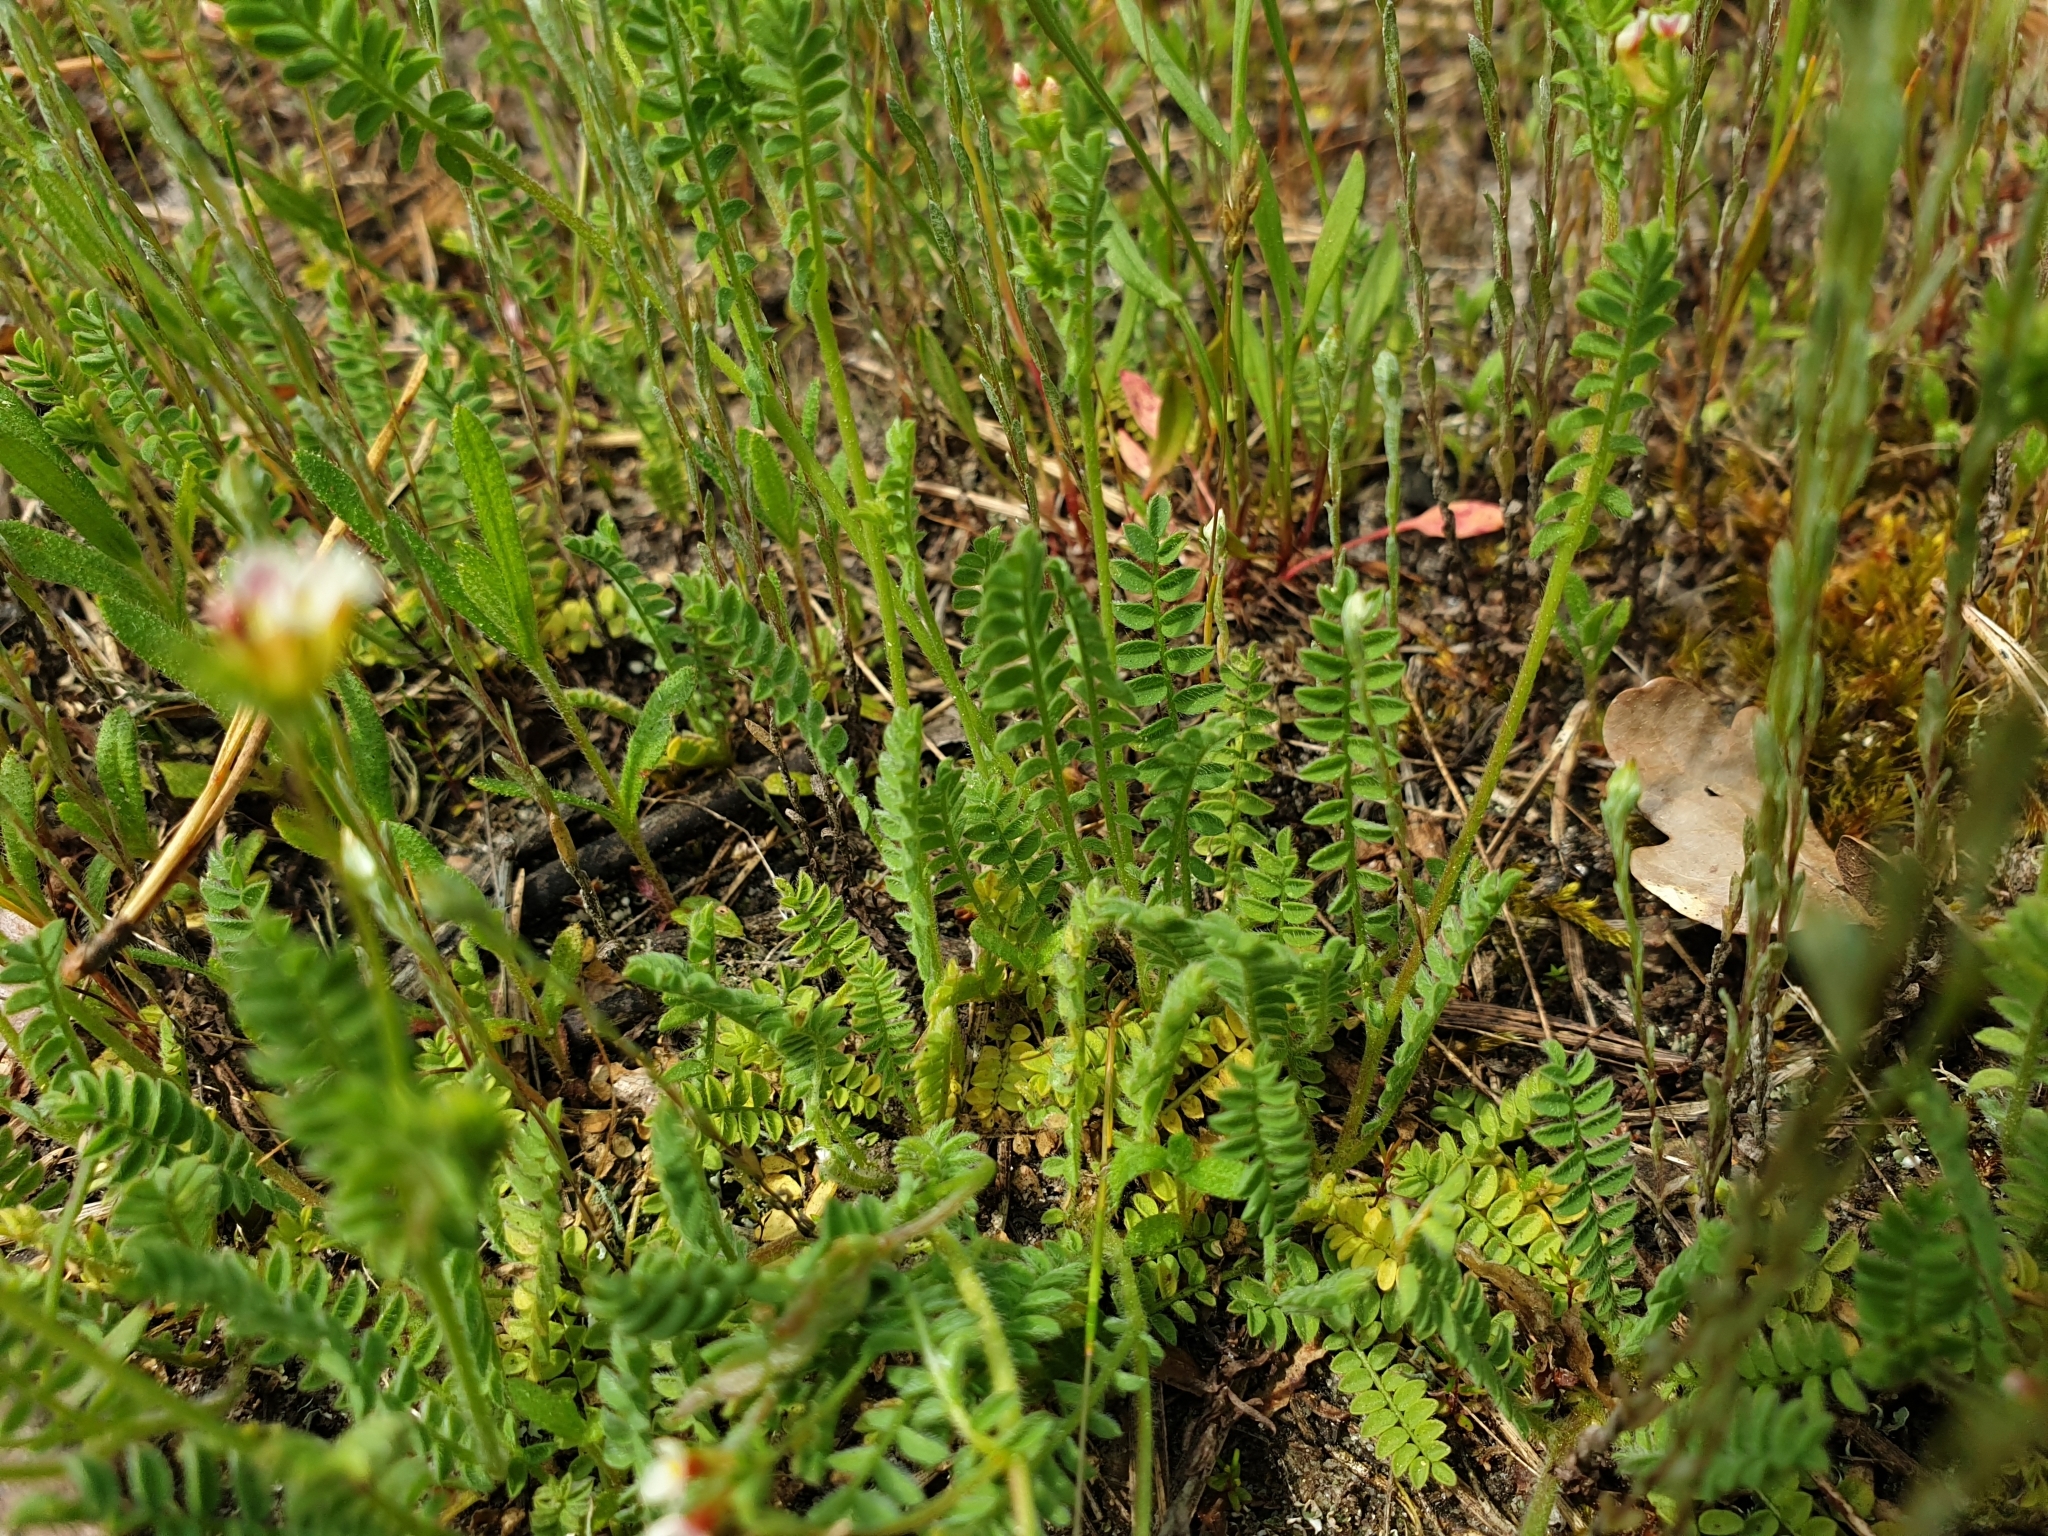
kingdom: Plantae
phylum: Tracheophyta
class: Magnoliopsida
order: Fabales
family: Fabaceae
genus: Ornithopus
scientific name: Ornithopus perpusillus
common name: Bird's-foot
